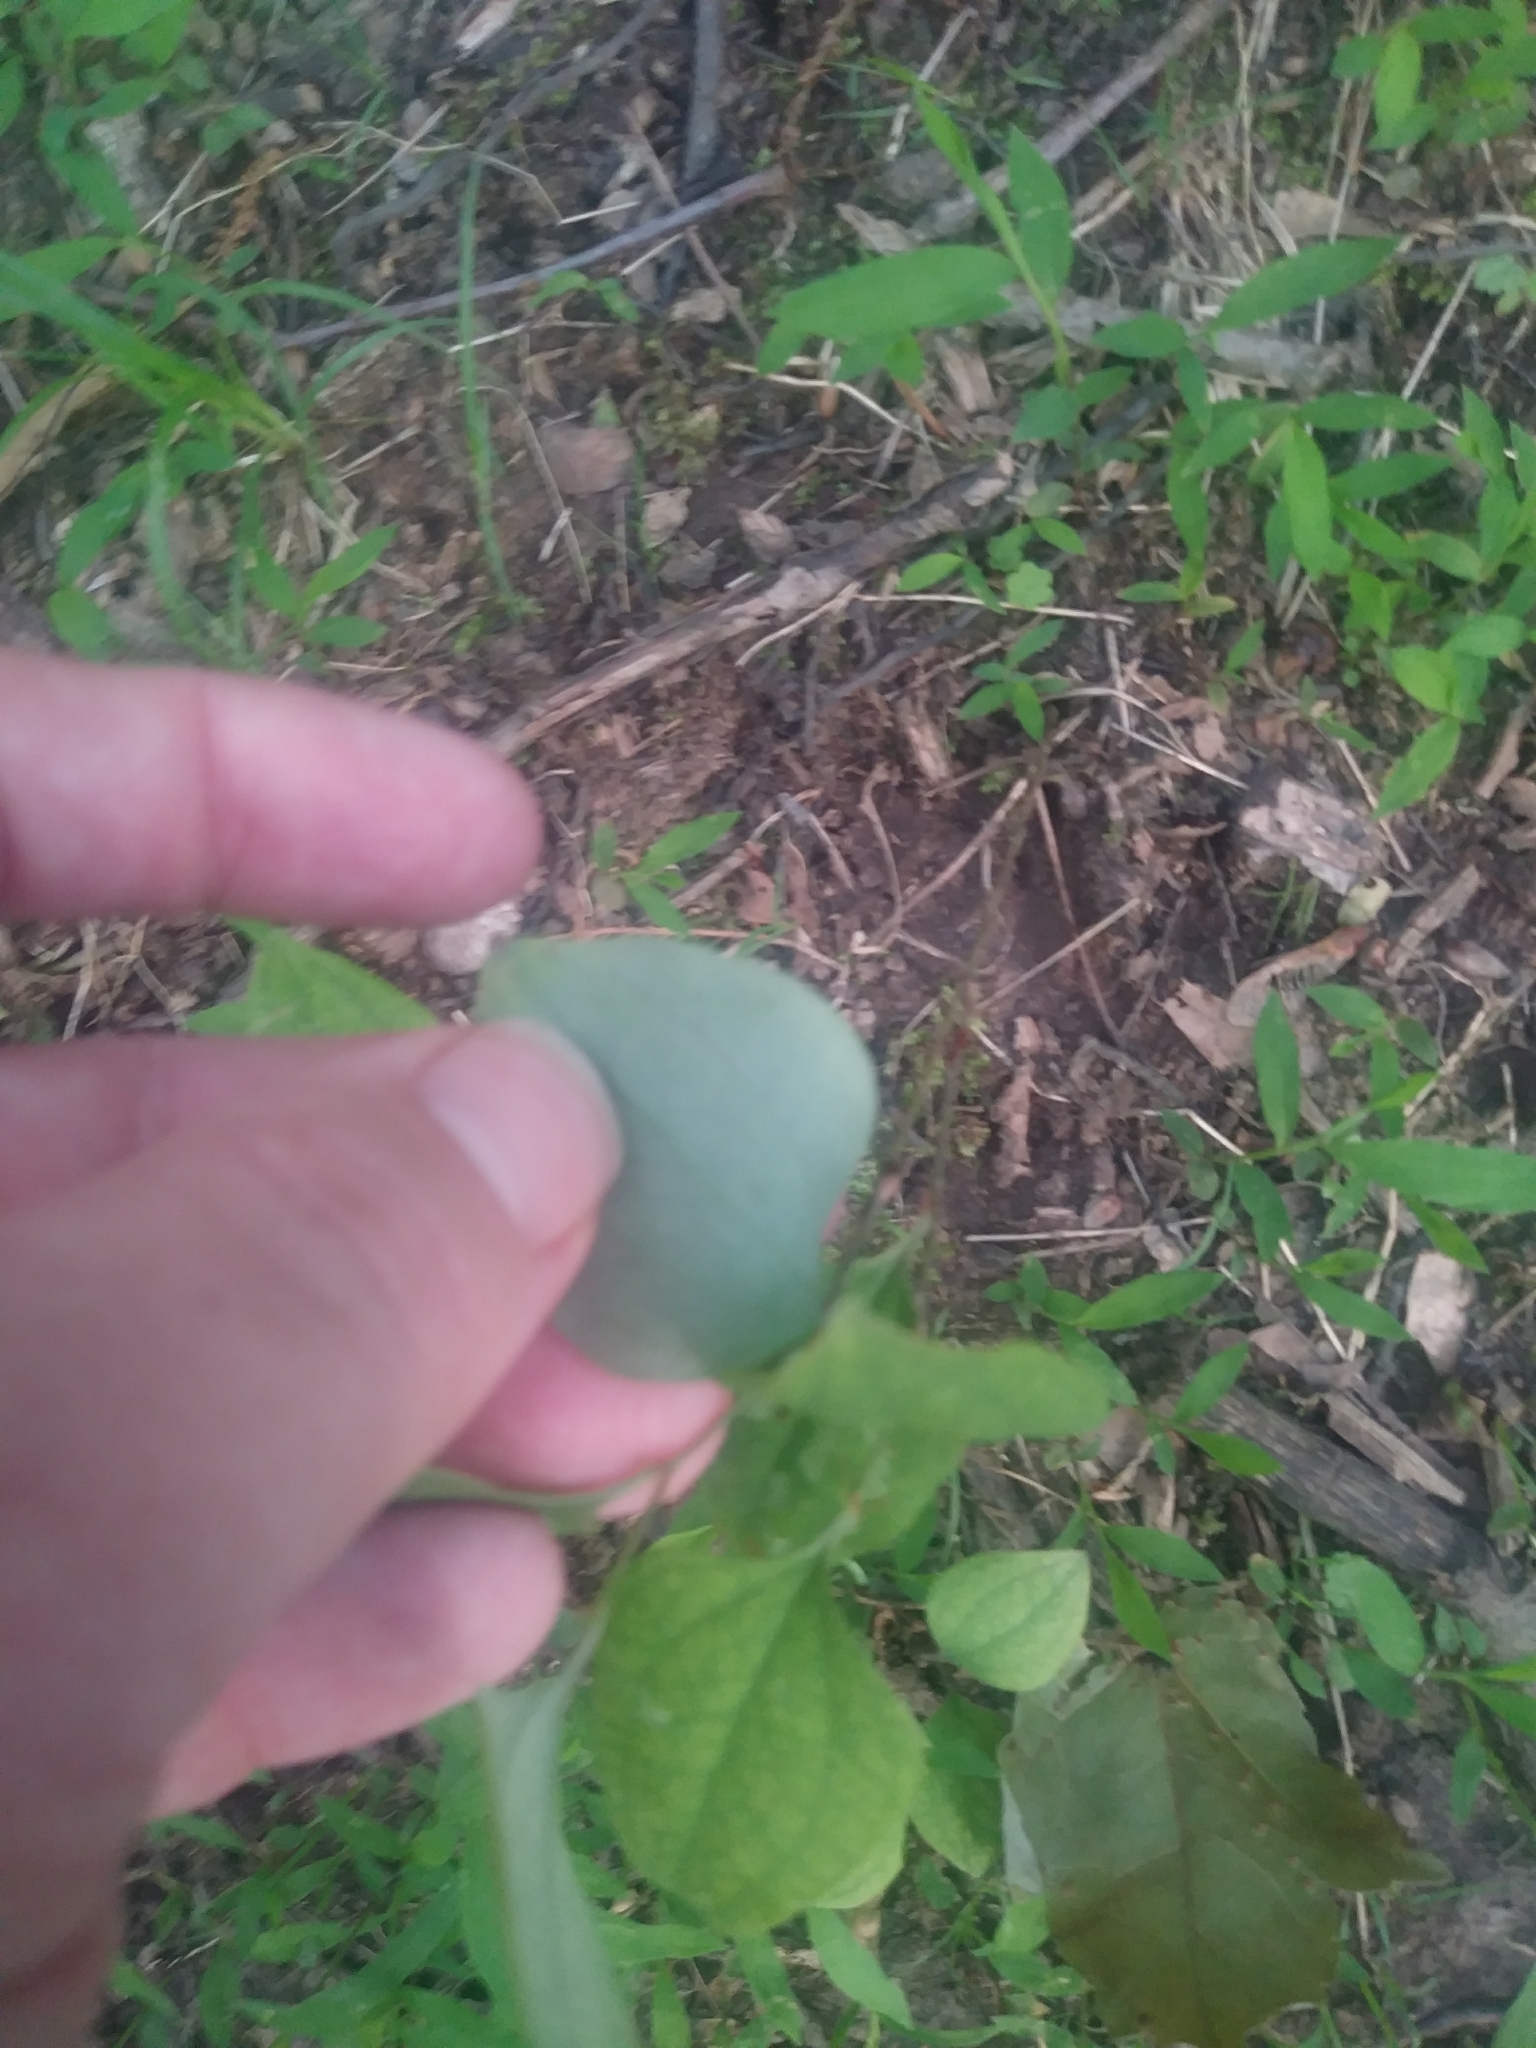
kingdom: Plantae
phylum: Tracheophyta
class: Liliopsida
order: Liliales
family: Smilacaceae
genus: Smilax
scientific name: Smilax glauca
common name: Cat greenbrier
